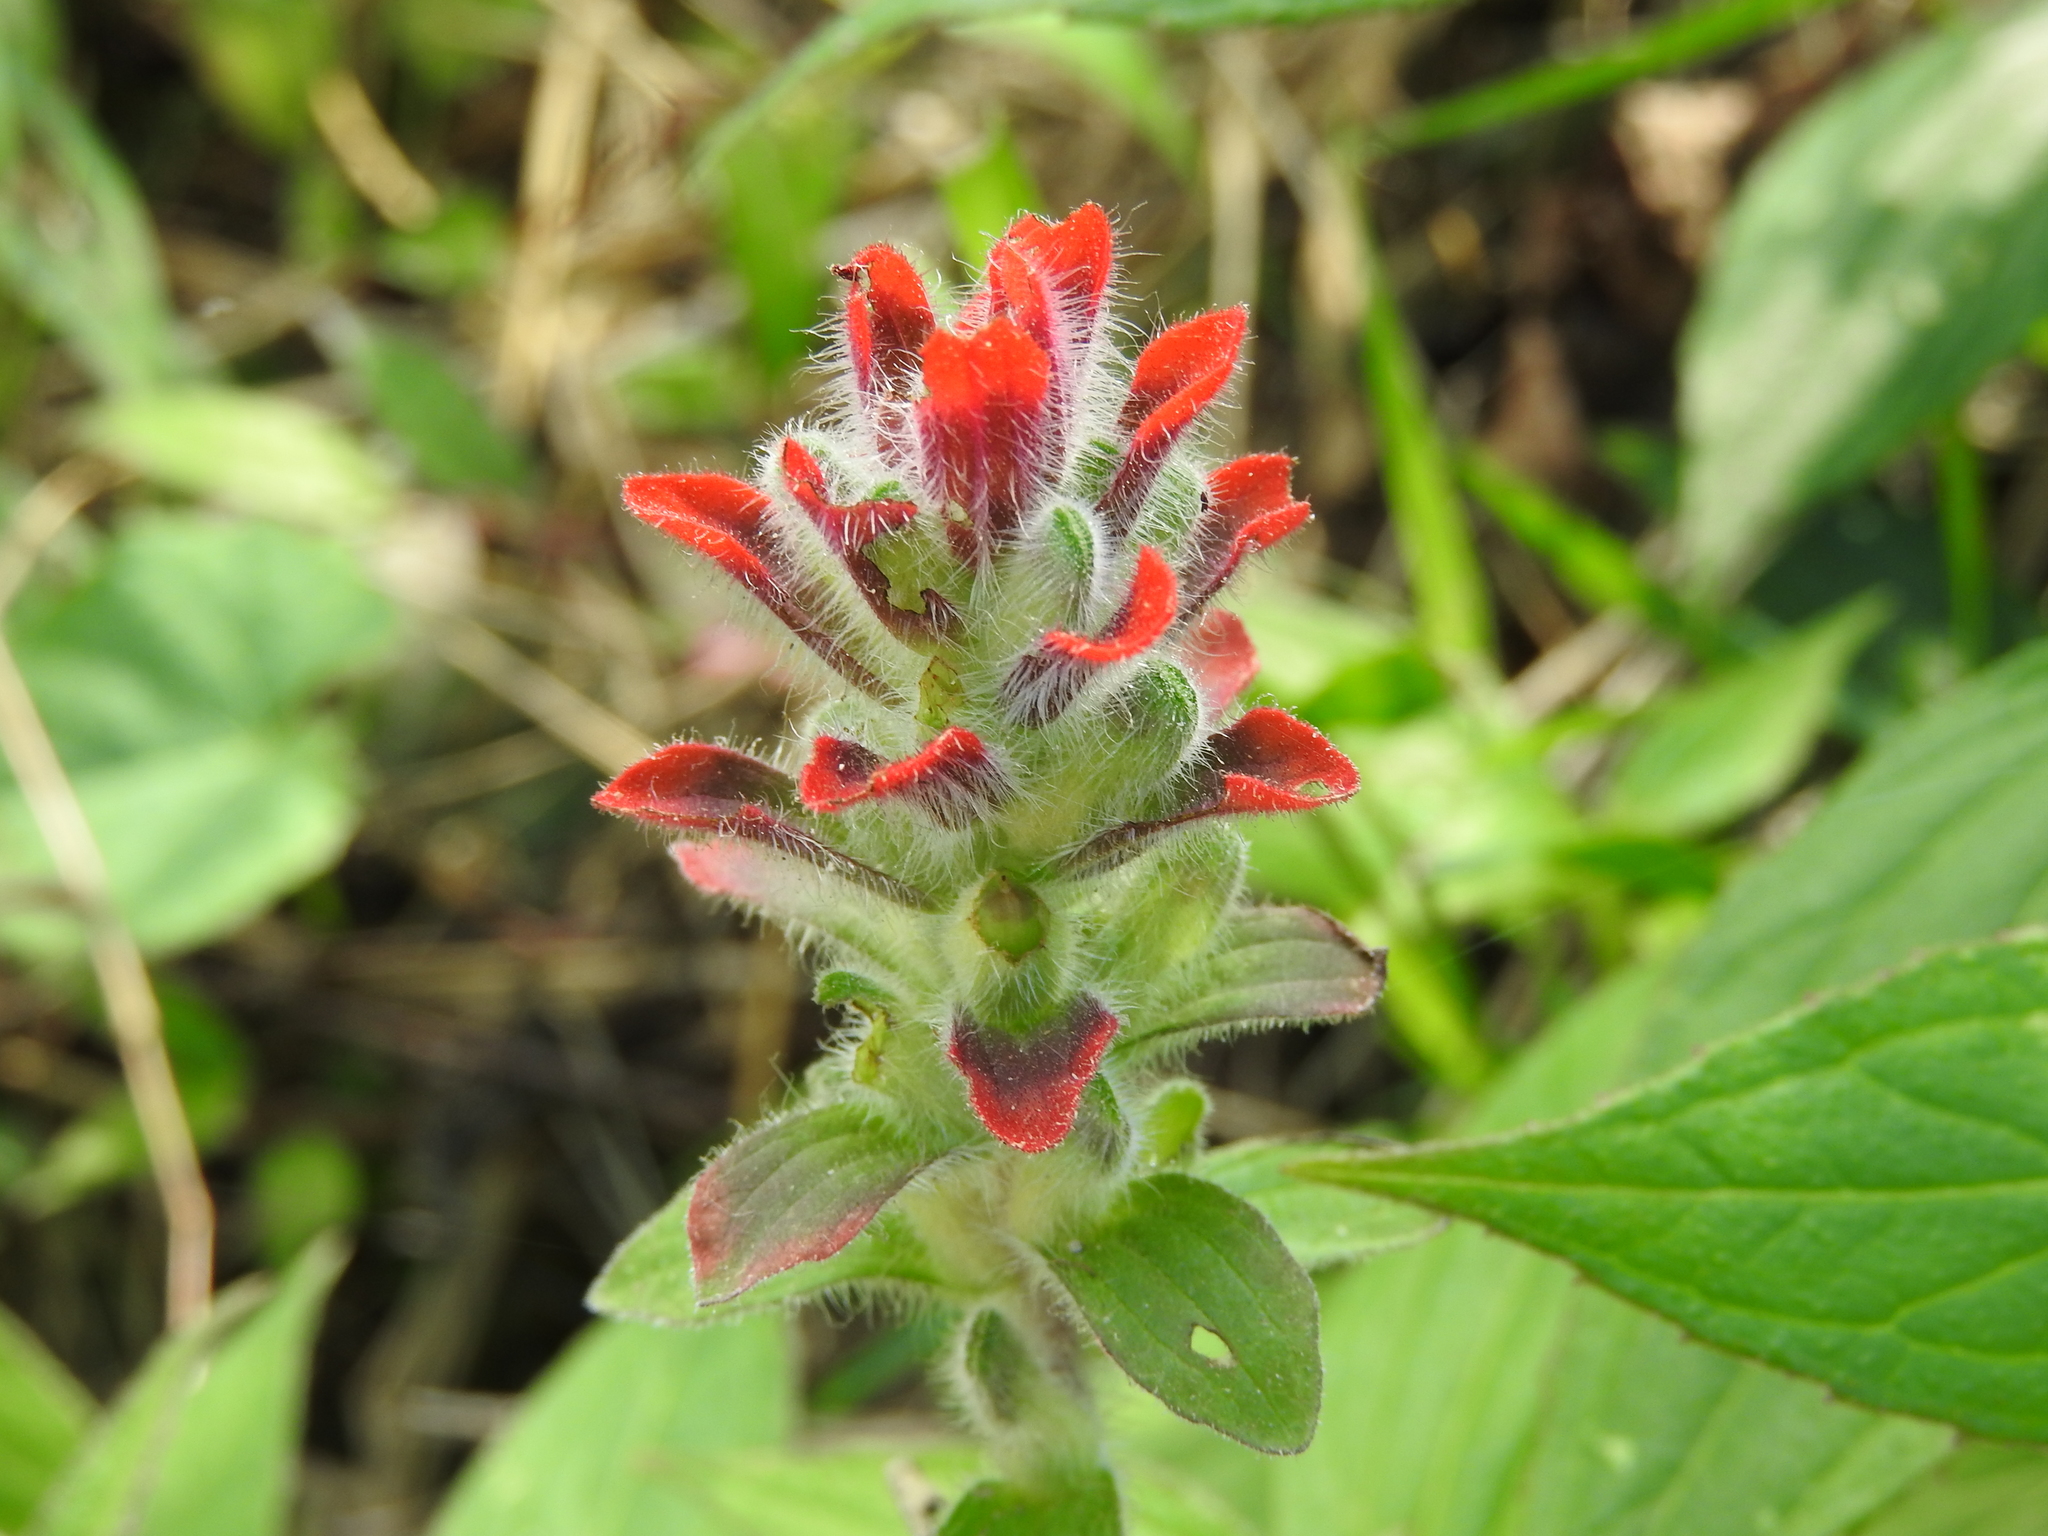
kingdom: Plantae
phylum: Tracheophyta
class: Magnoliopsida
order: Lamiales
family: Orobanchaceae
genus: Castilleja
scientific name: Castilleja arvensis
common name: Indian paintbrush
